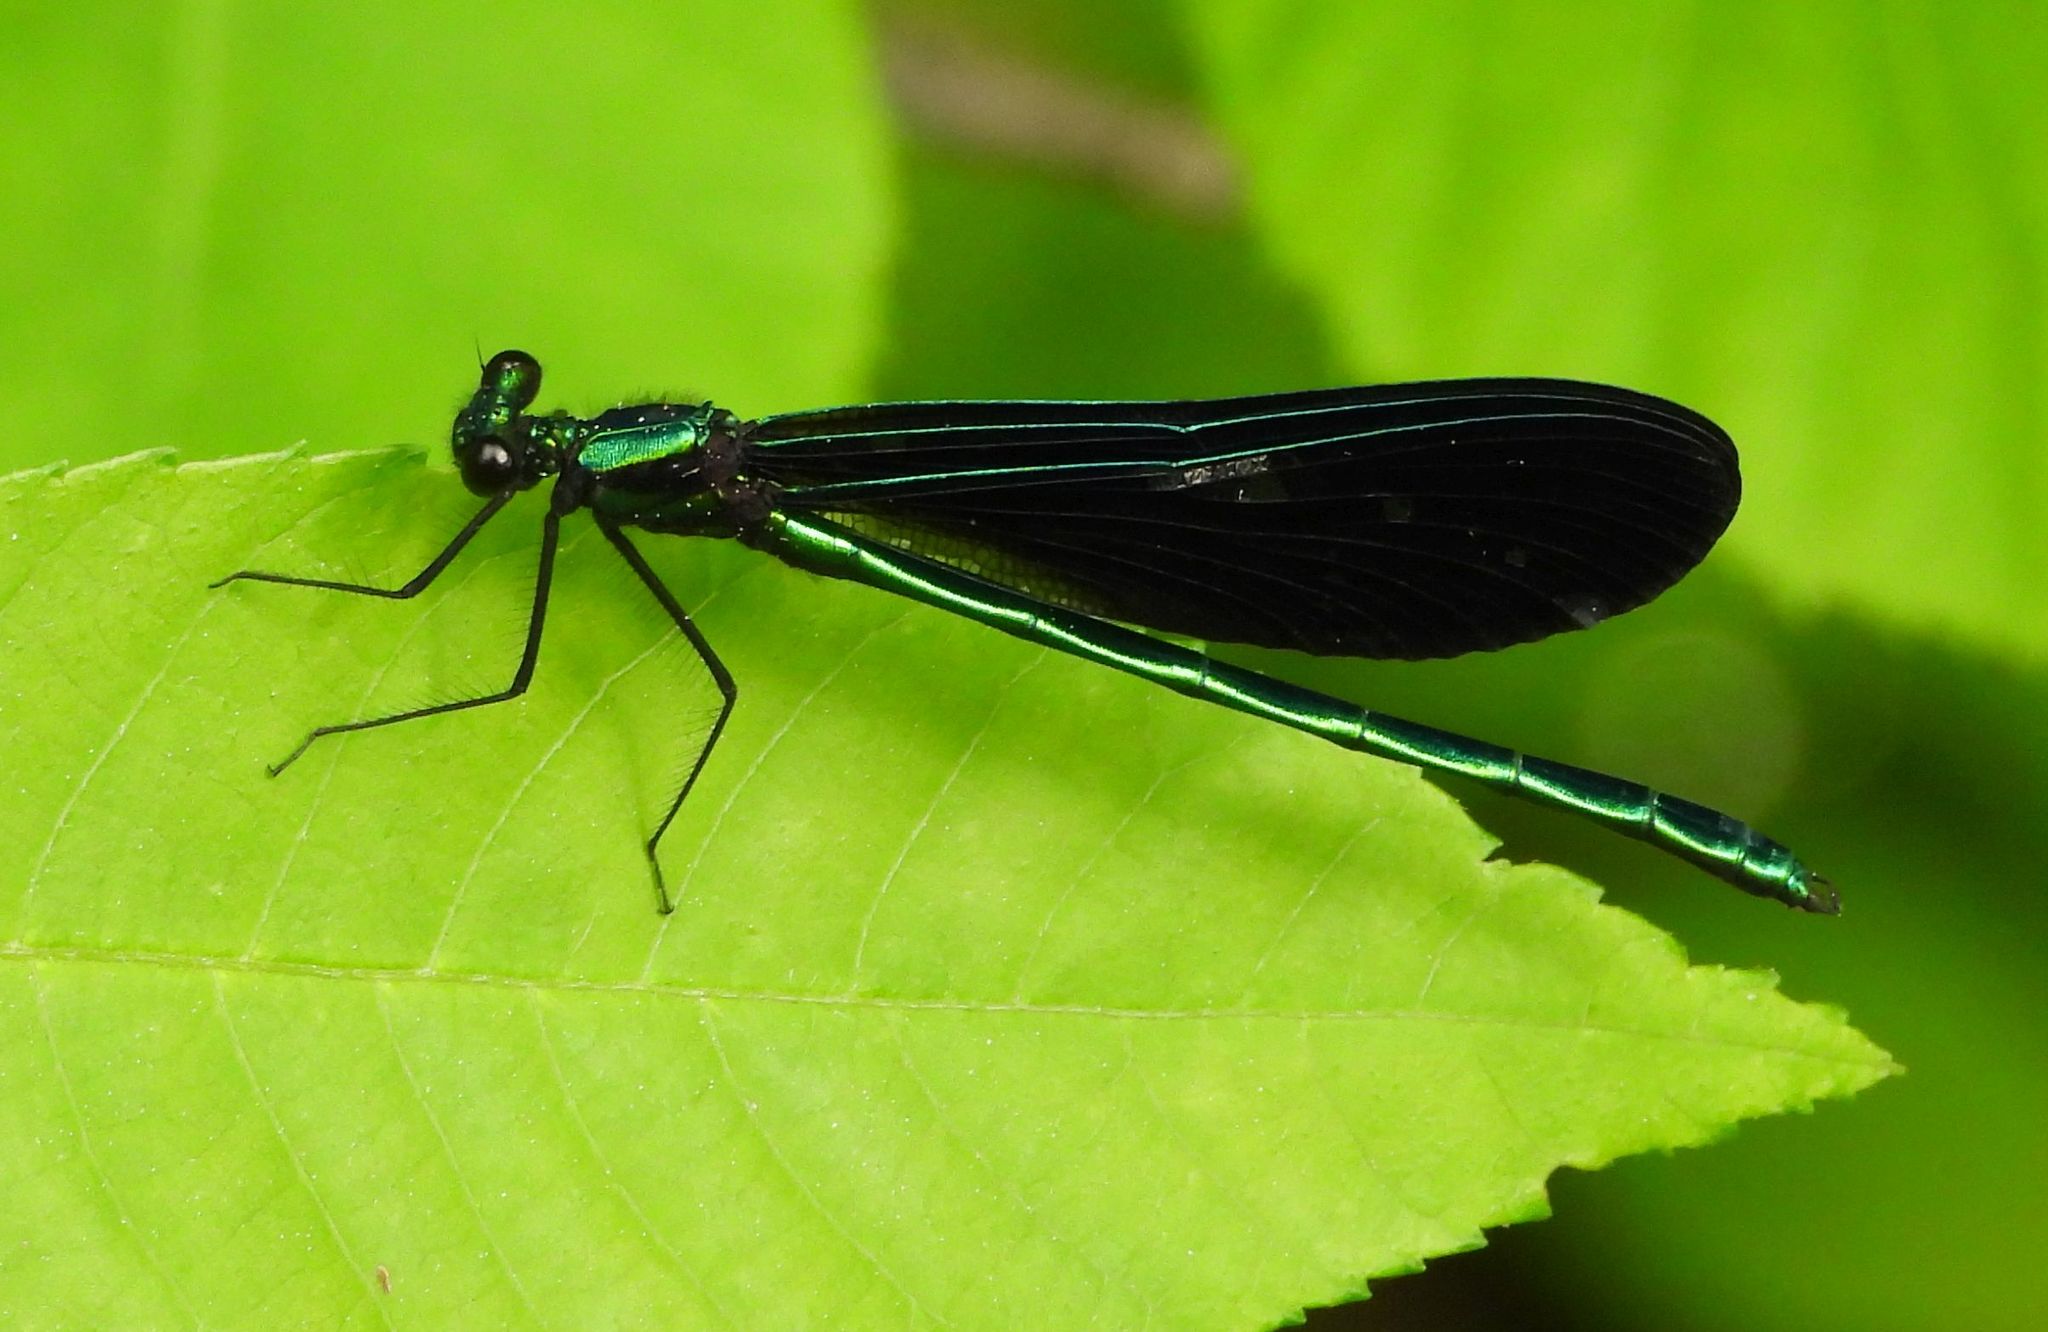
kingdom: Animalia
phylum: Arthropoda
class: Insecta
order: Odonata
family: Calopterygidae
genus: Calopteryx
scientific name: Calopteryx maculata
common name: Ebony jewelwing
